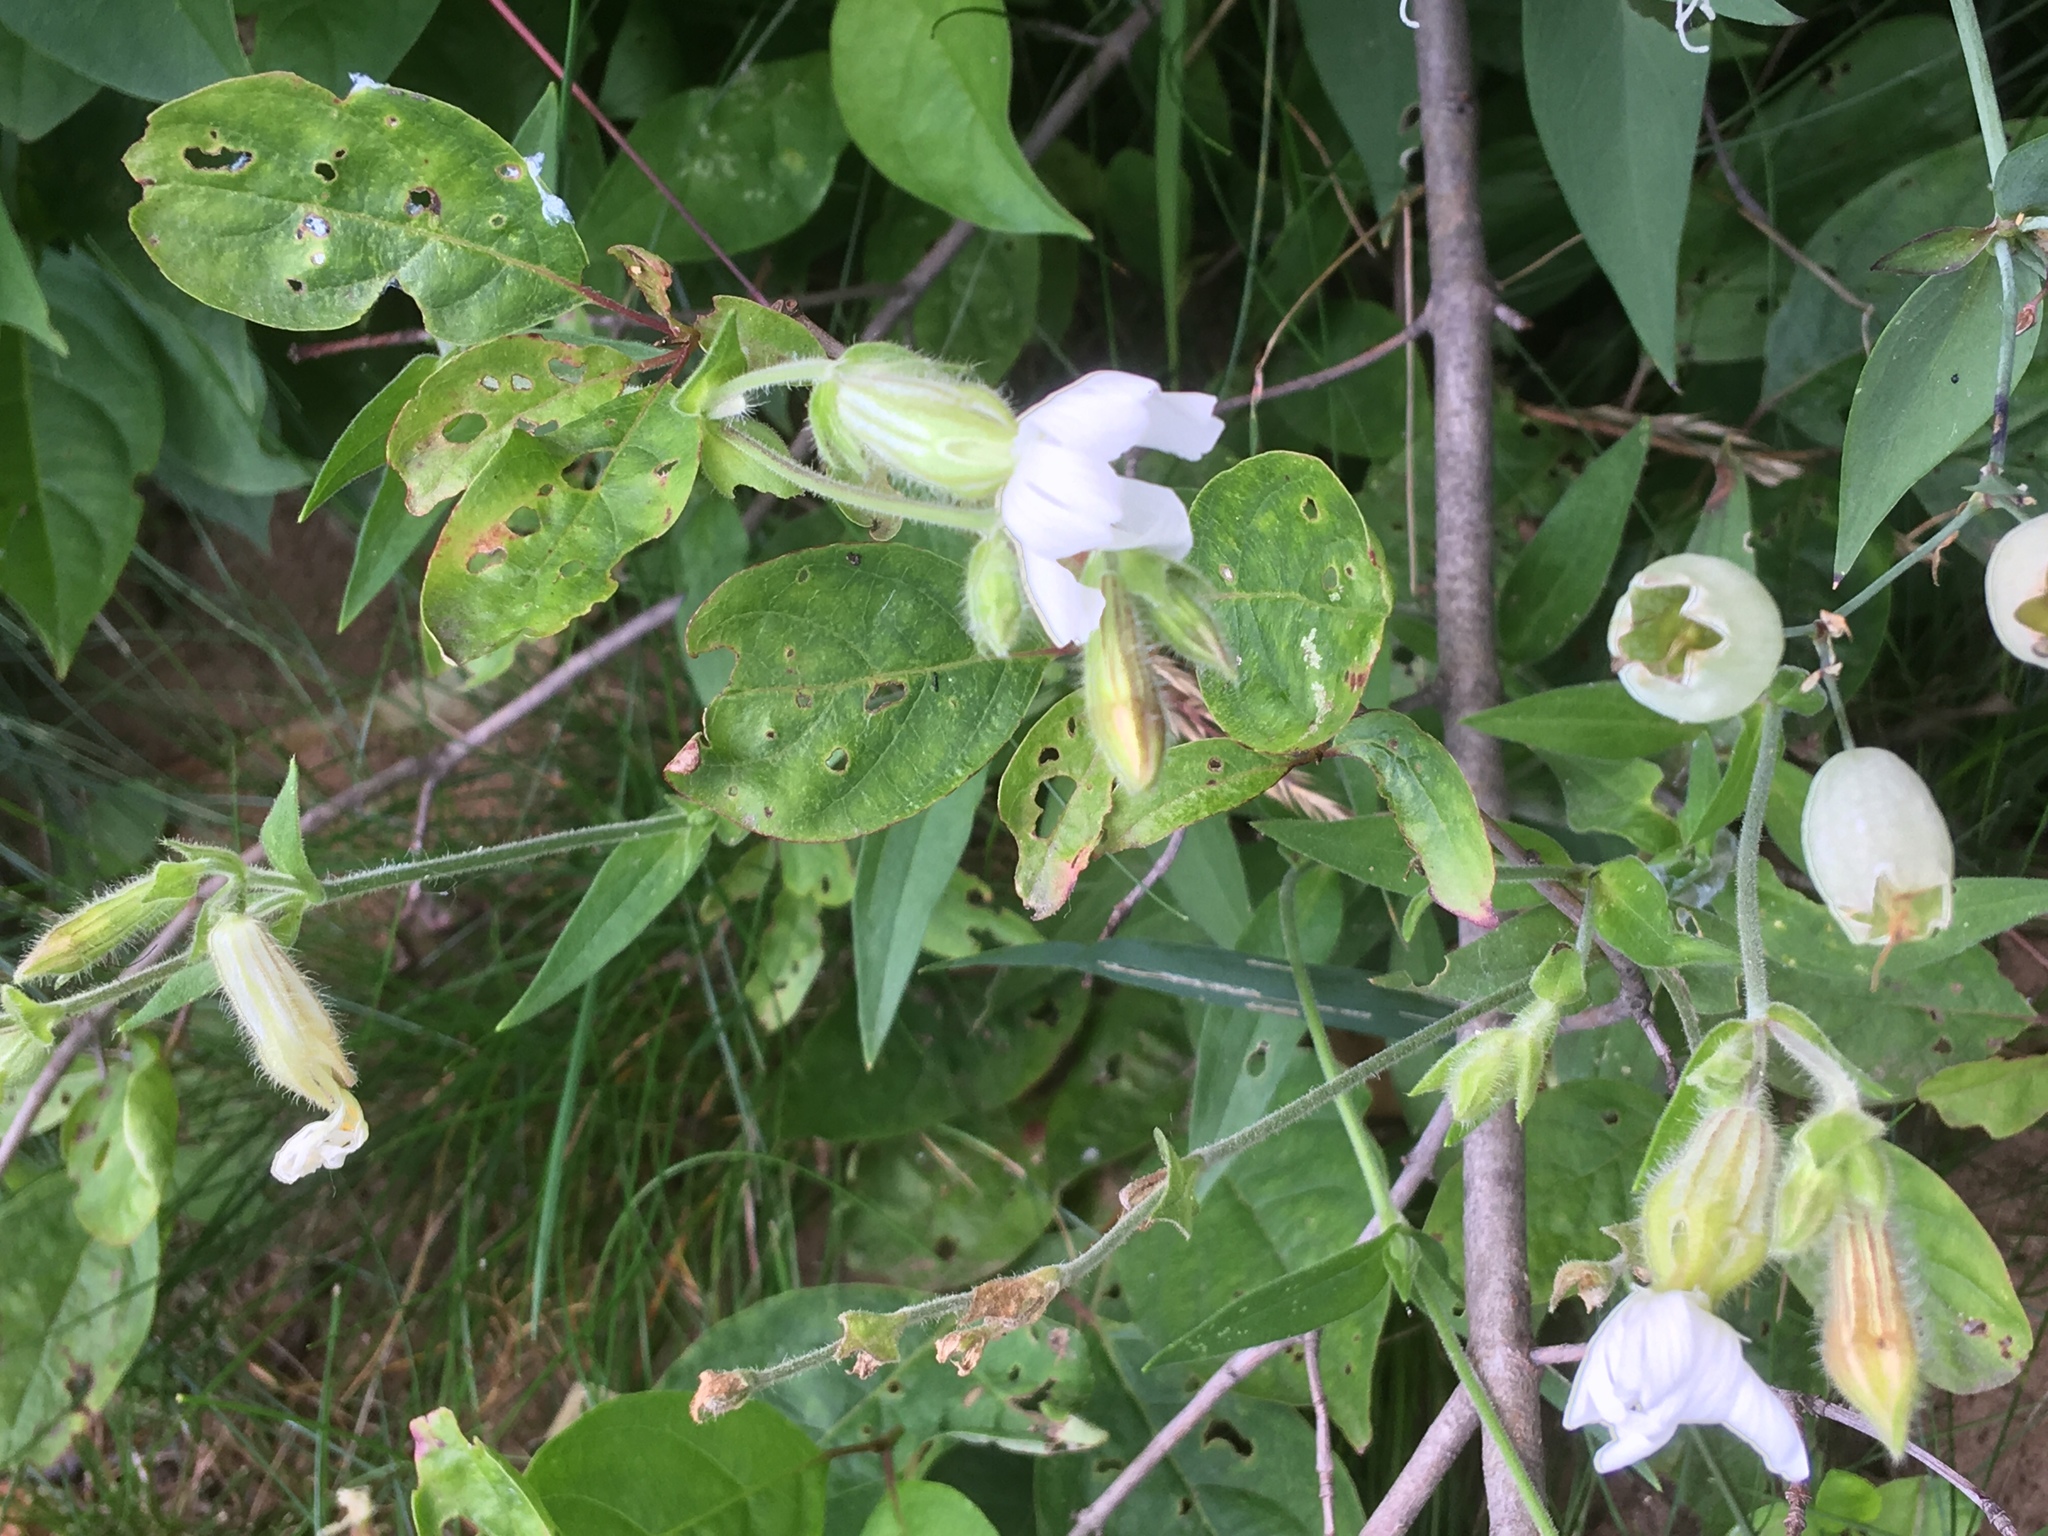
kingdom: Plantae
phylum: Tracheophyta
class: Magnoliopsida
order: Caryophyllales
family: Caryophyllaceae
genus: Silene
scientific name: Silene latifolia
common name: White campion
